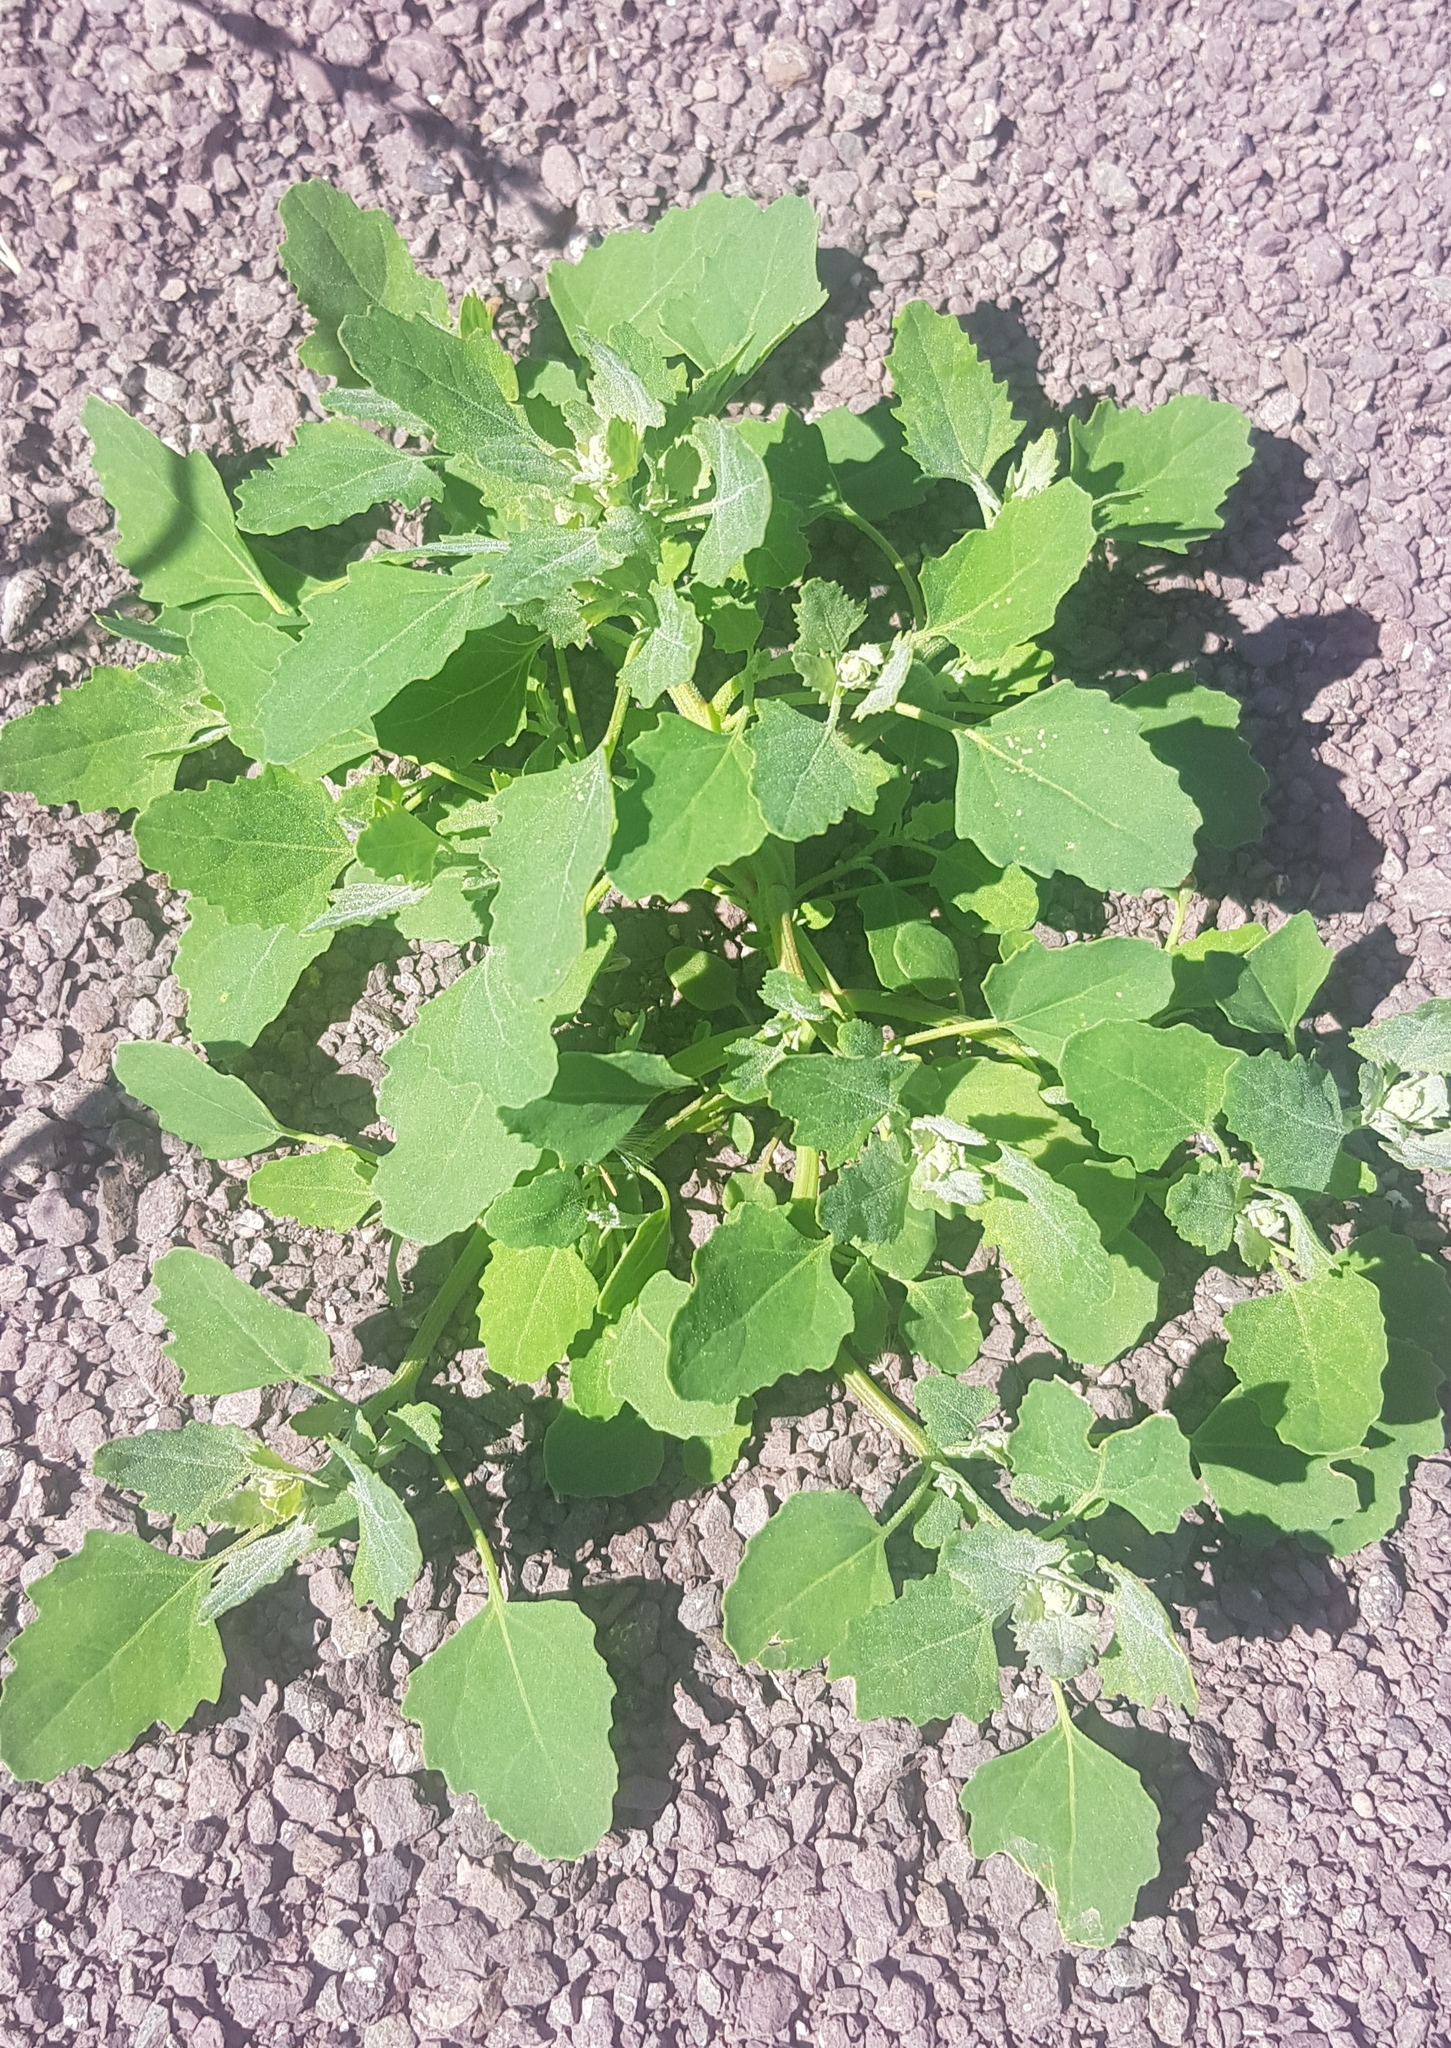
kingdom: Plantae
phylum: Tracheophyta
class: Magnoliopsida
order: Caryophyllales
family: Amaranthaceae
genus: Chenopodium
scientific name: Chenopodium karoi
